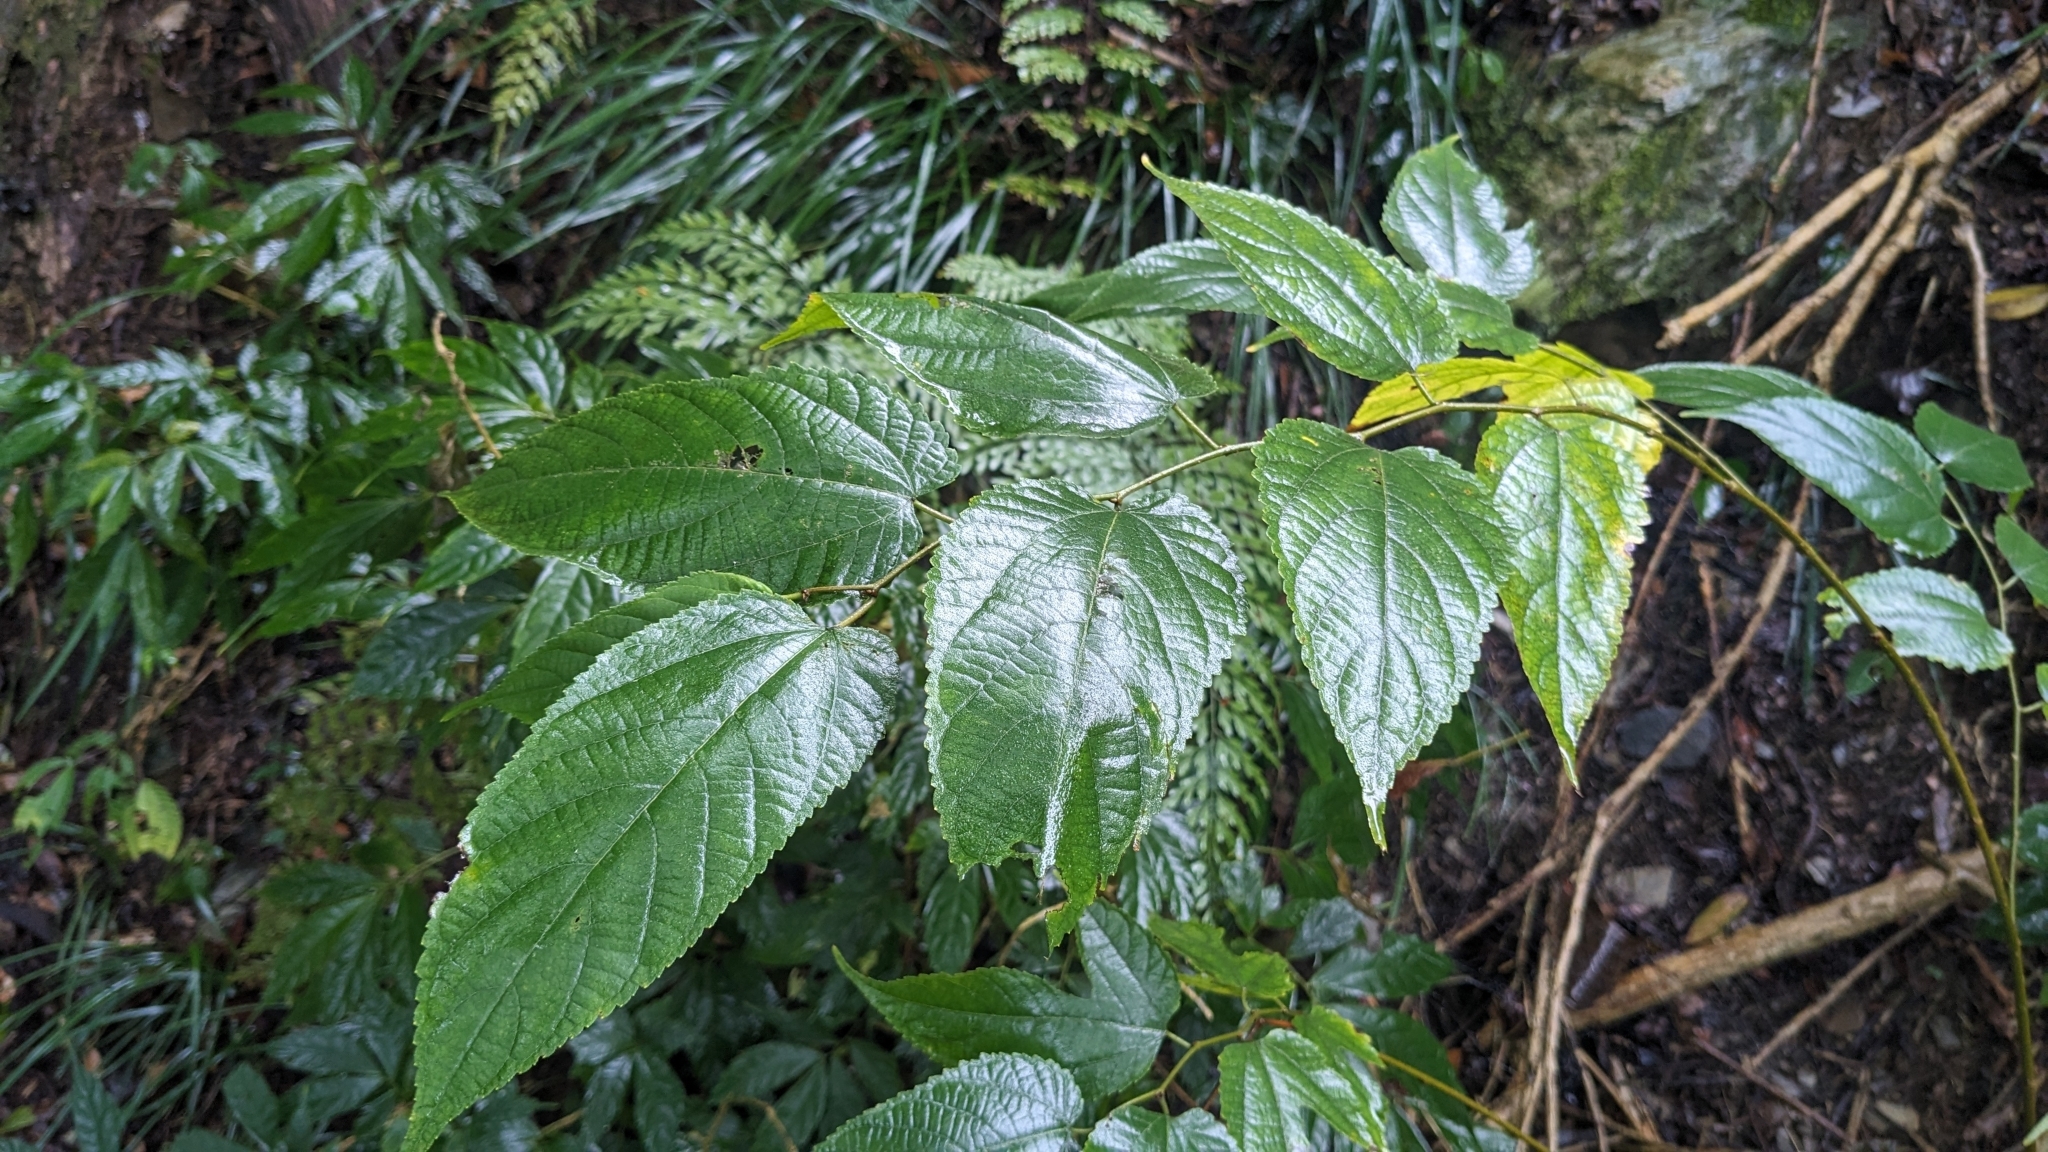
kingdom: Plantae
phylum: Tracheophyta
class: Magnoliopsida
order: Rosales
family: Moraceae
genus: Broussonetia
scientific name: Broussonetia monoica
